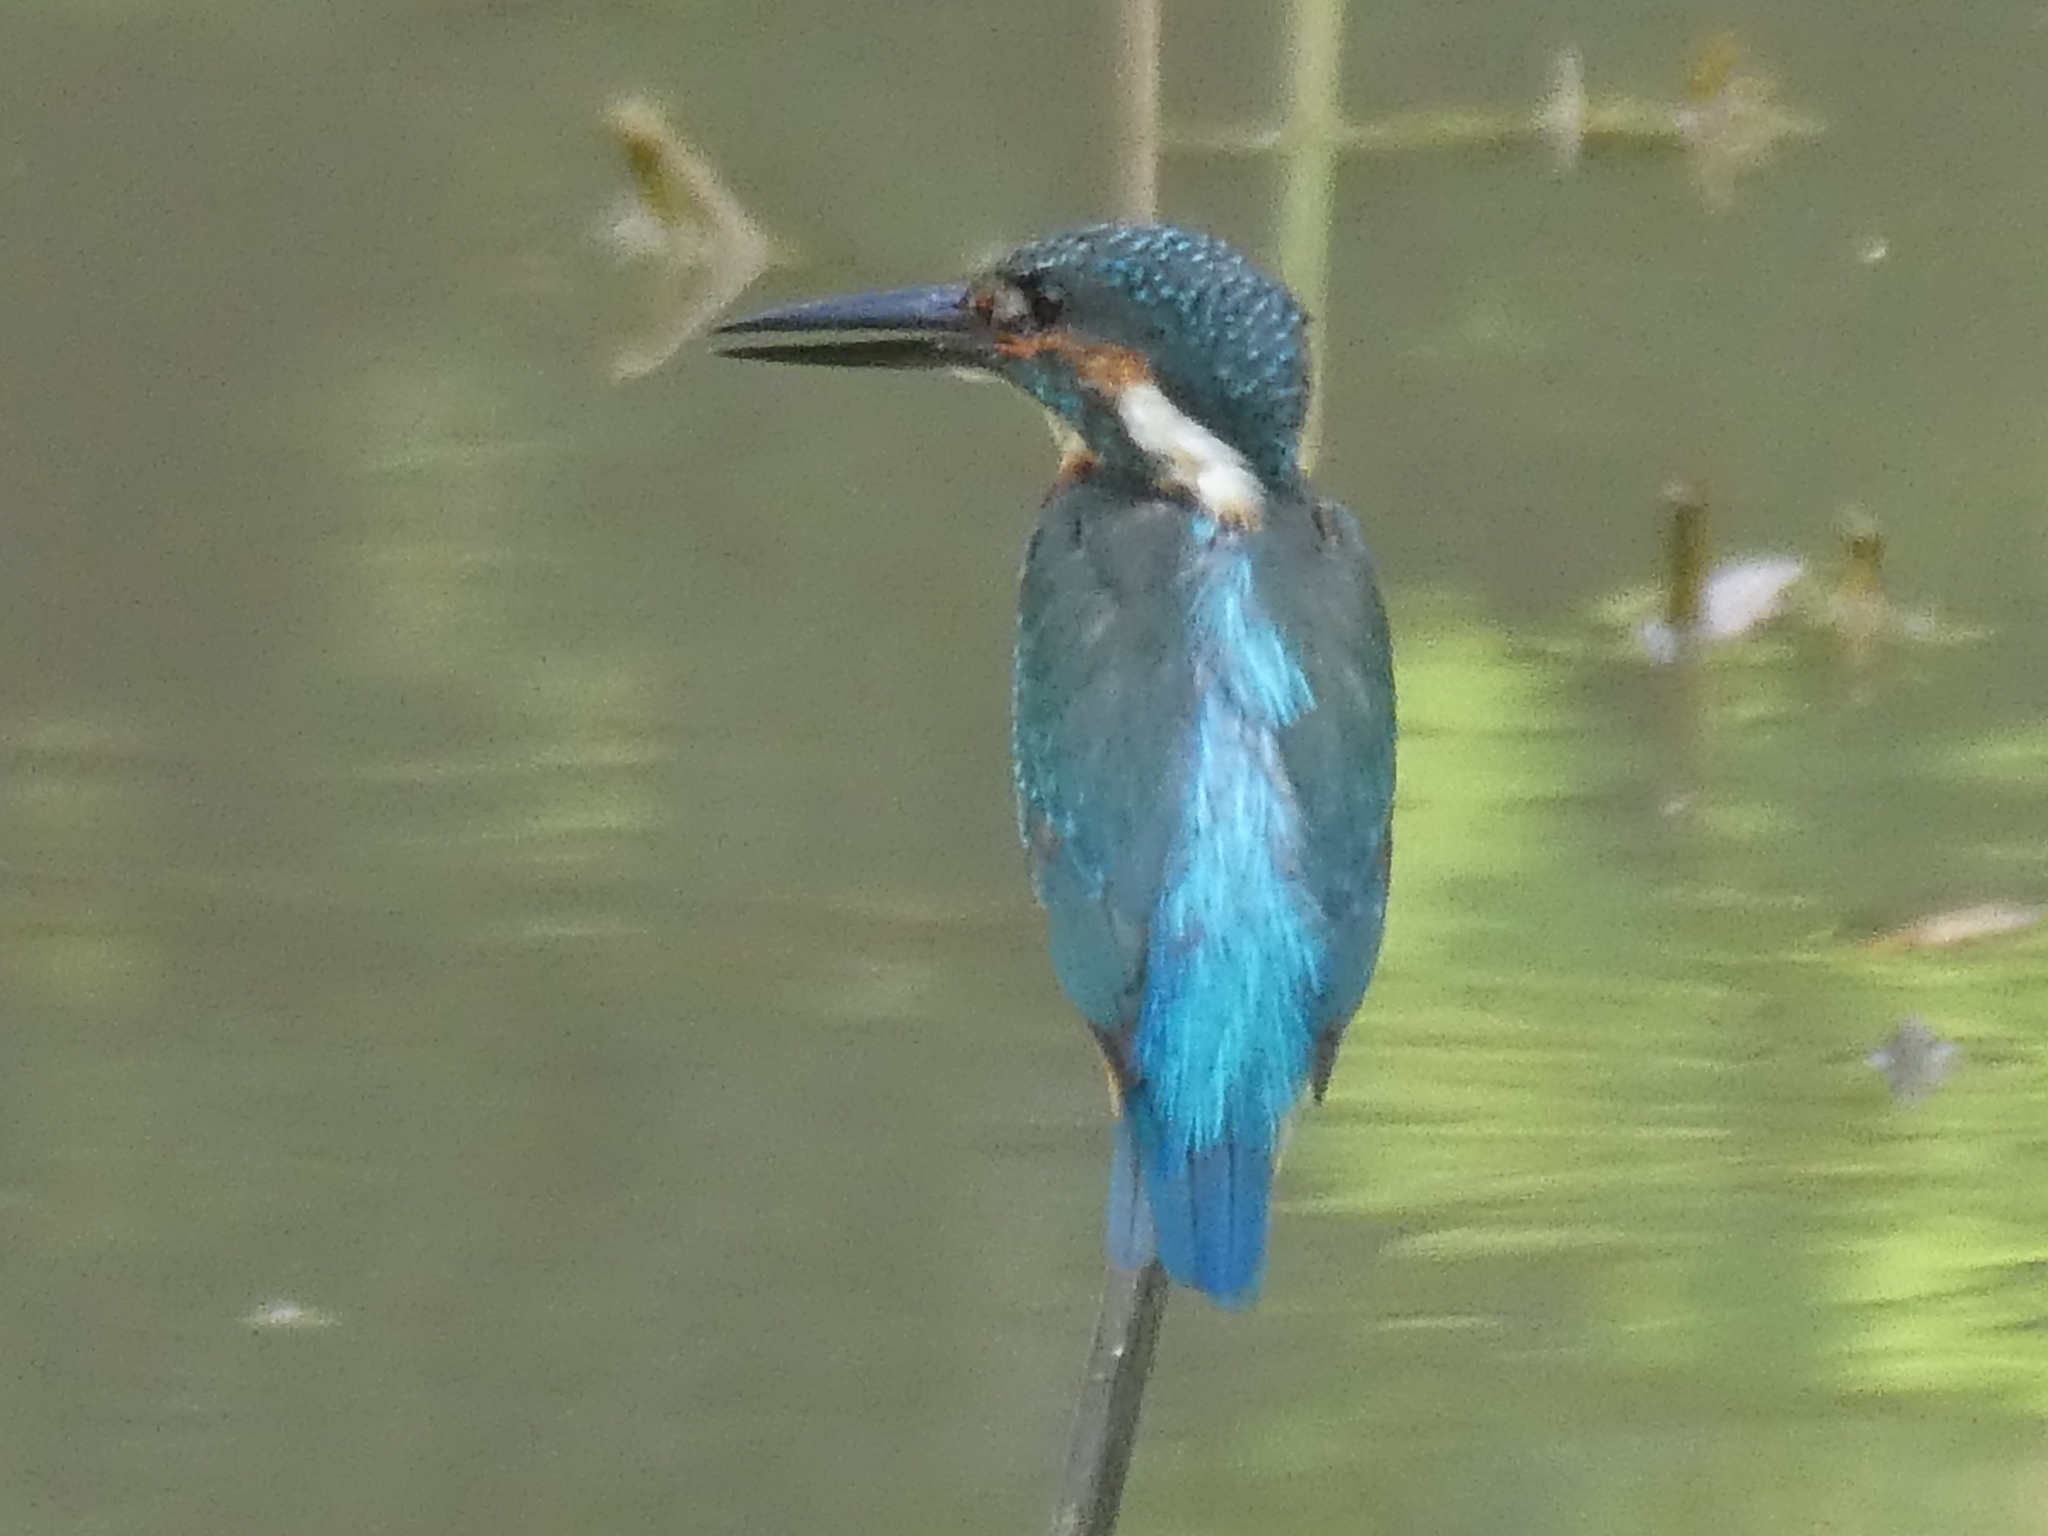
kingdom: Animalia
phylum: Chordata
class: Aves
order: Coraciiformes
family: Alcedinidae
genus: Alcedo
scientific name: Alcedo atthis
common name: Common kingfisher
